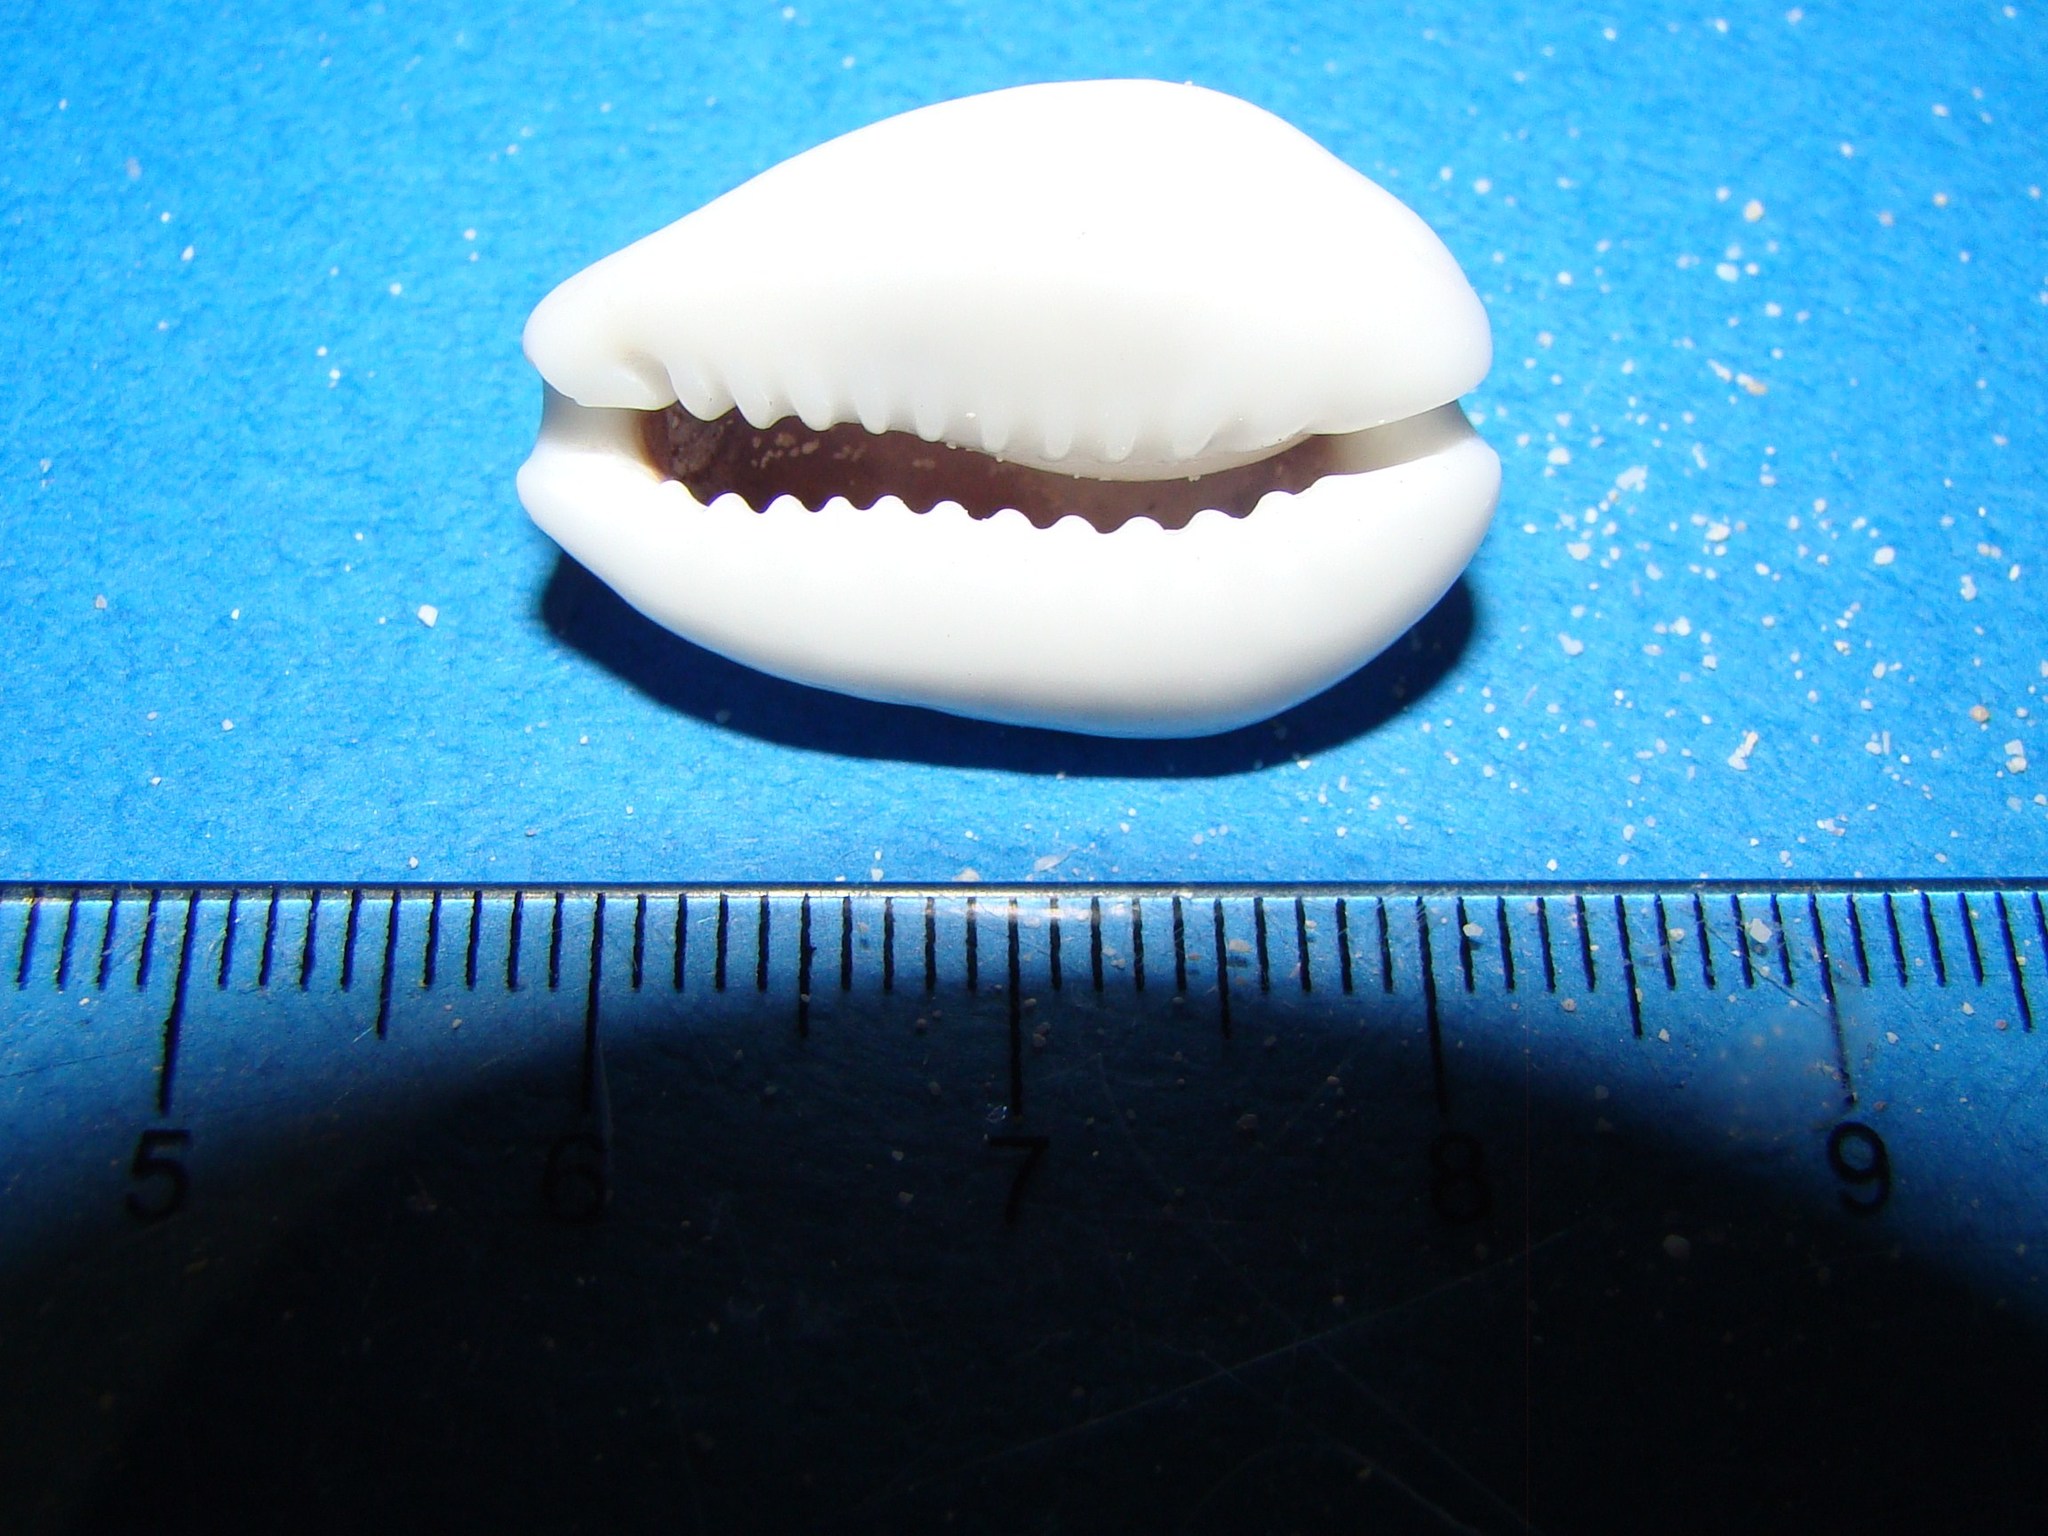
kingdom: Animalia
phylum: Mollusca
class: Gastropoda
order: Littorinimorpha
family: Cypraeidae
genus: Monetaria
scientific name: Monetaria moneta
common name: Money cowrie
